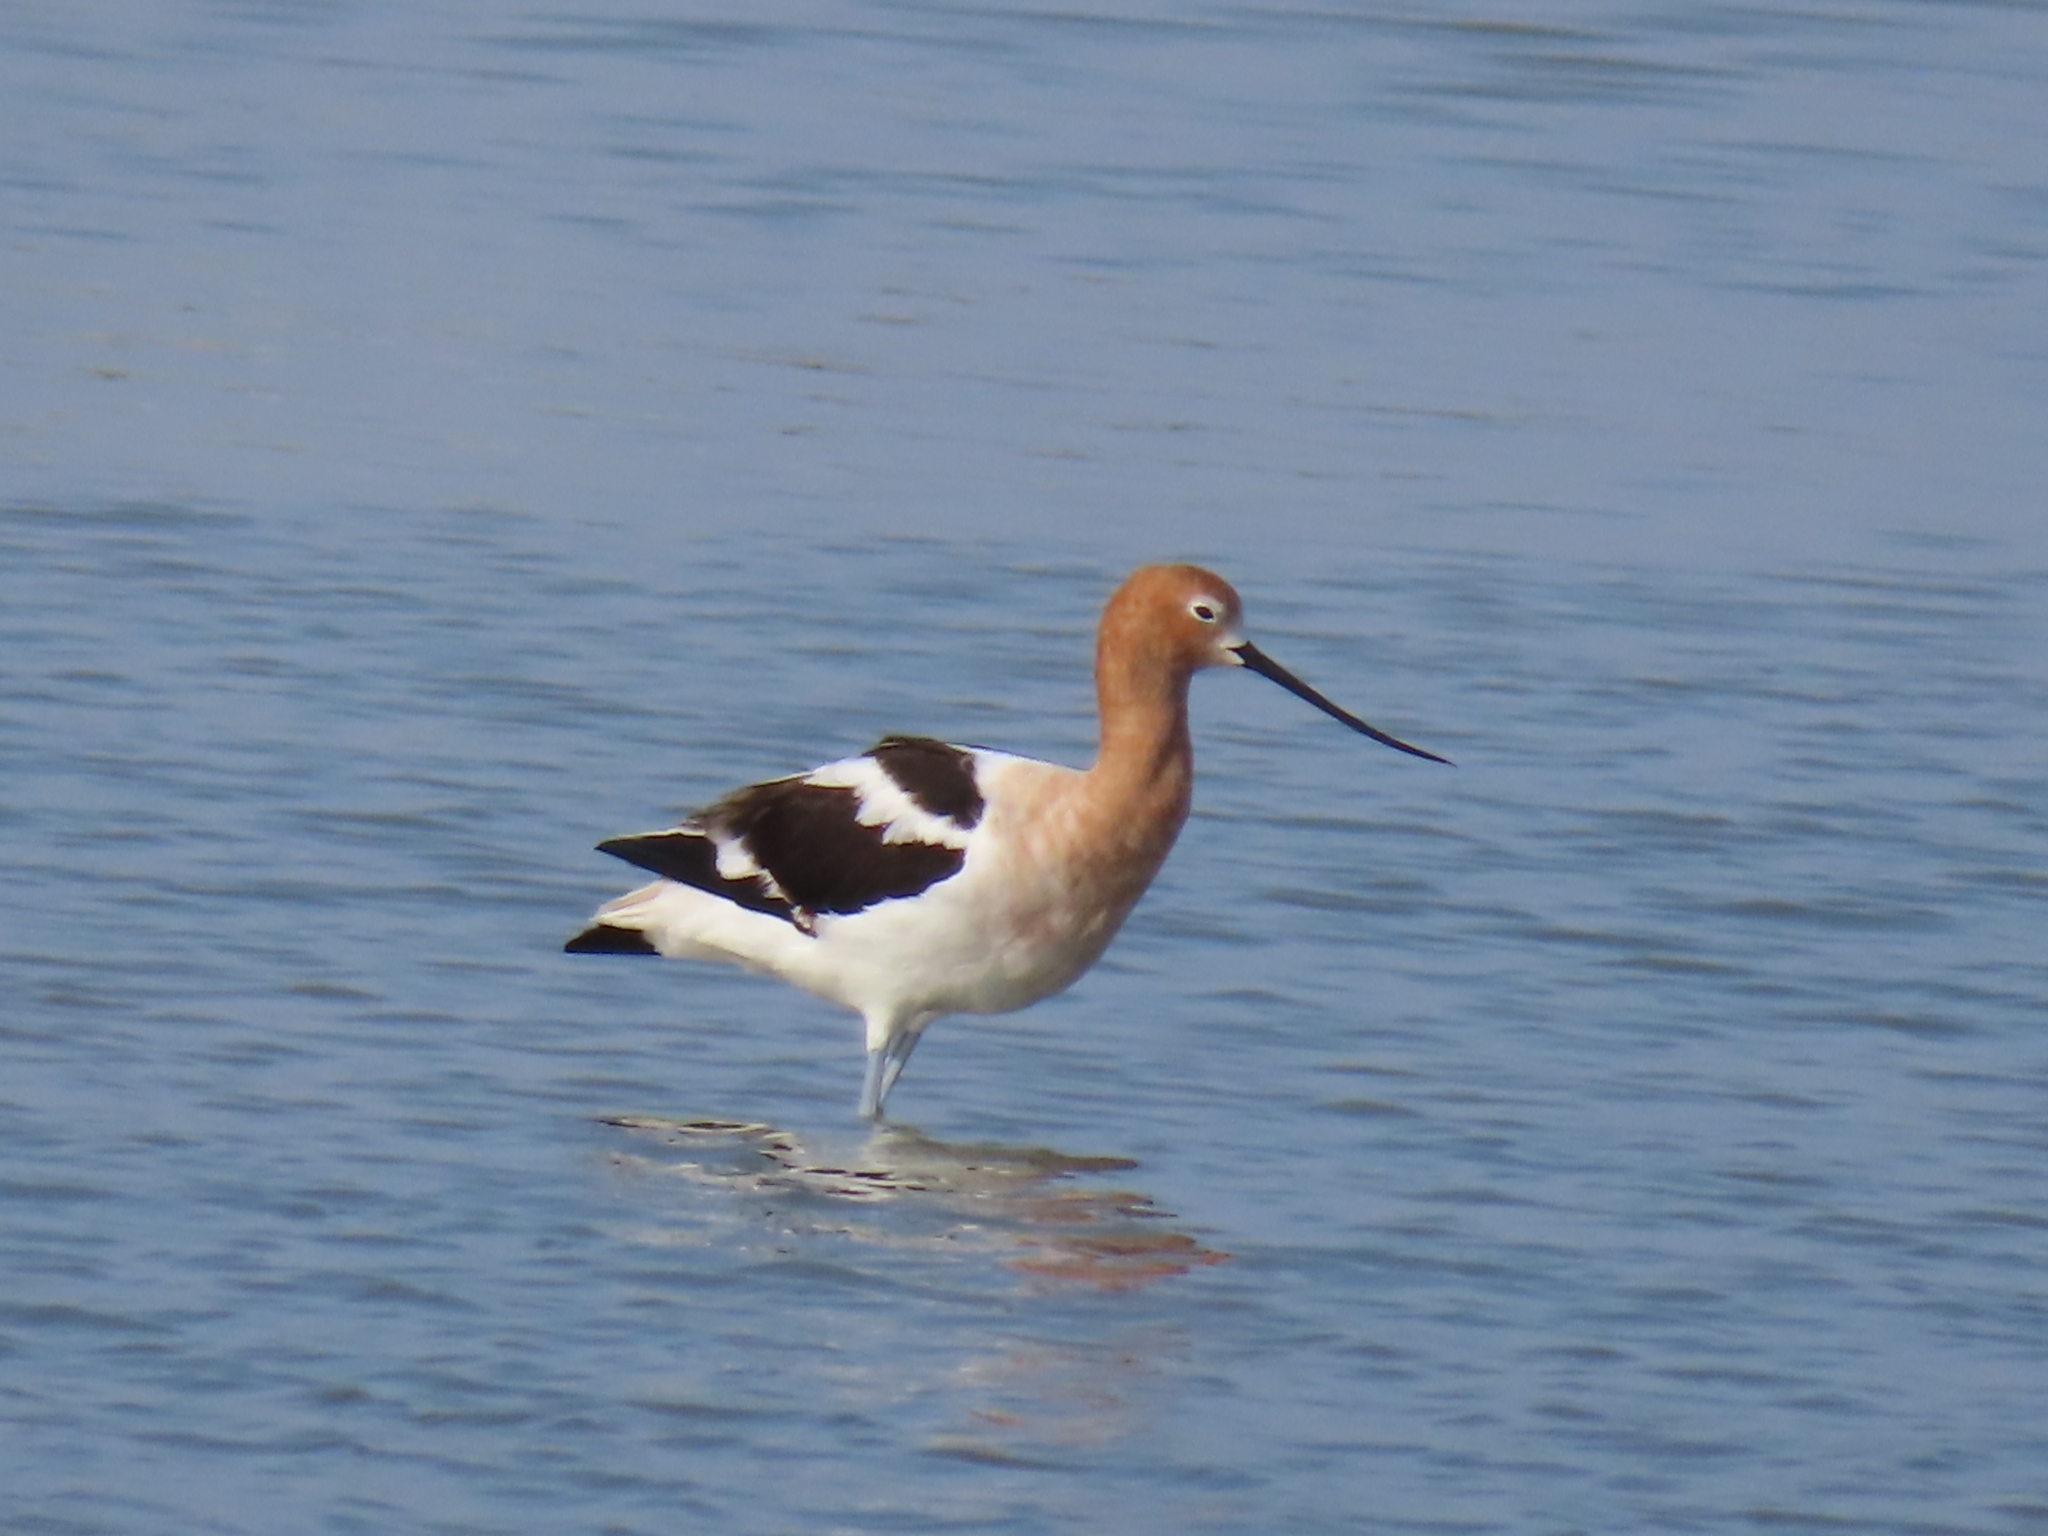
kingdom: Animalia
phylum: Chordata
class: Aves
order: Charadriiformes
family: Recurvirostridae
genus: Recurvirostra
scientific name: Recurvirostra americana
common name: American avocet
